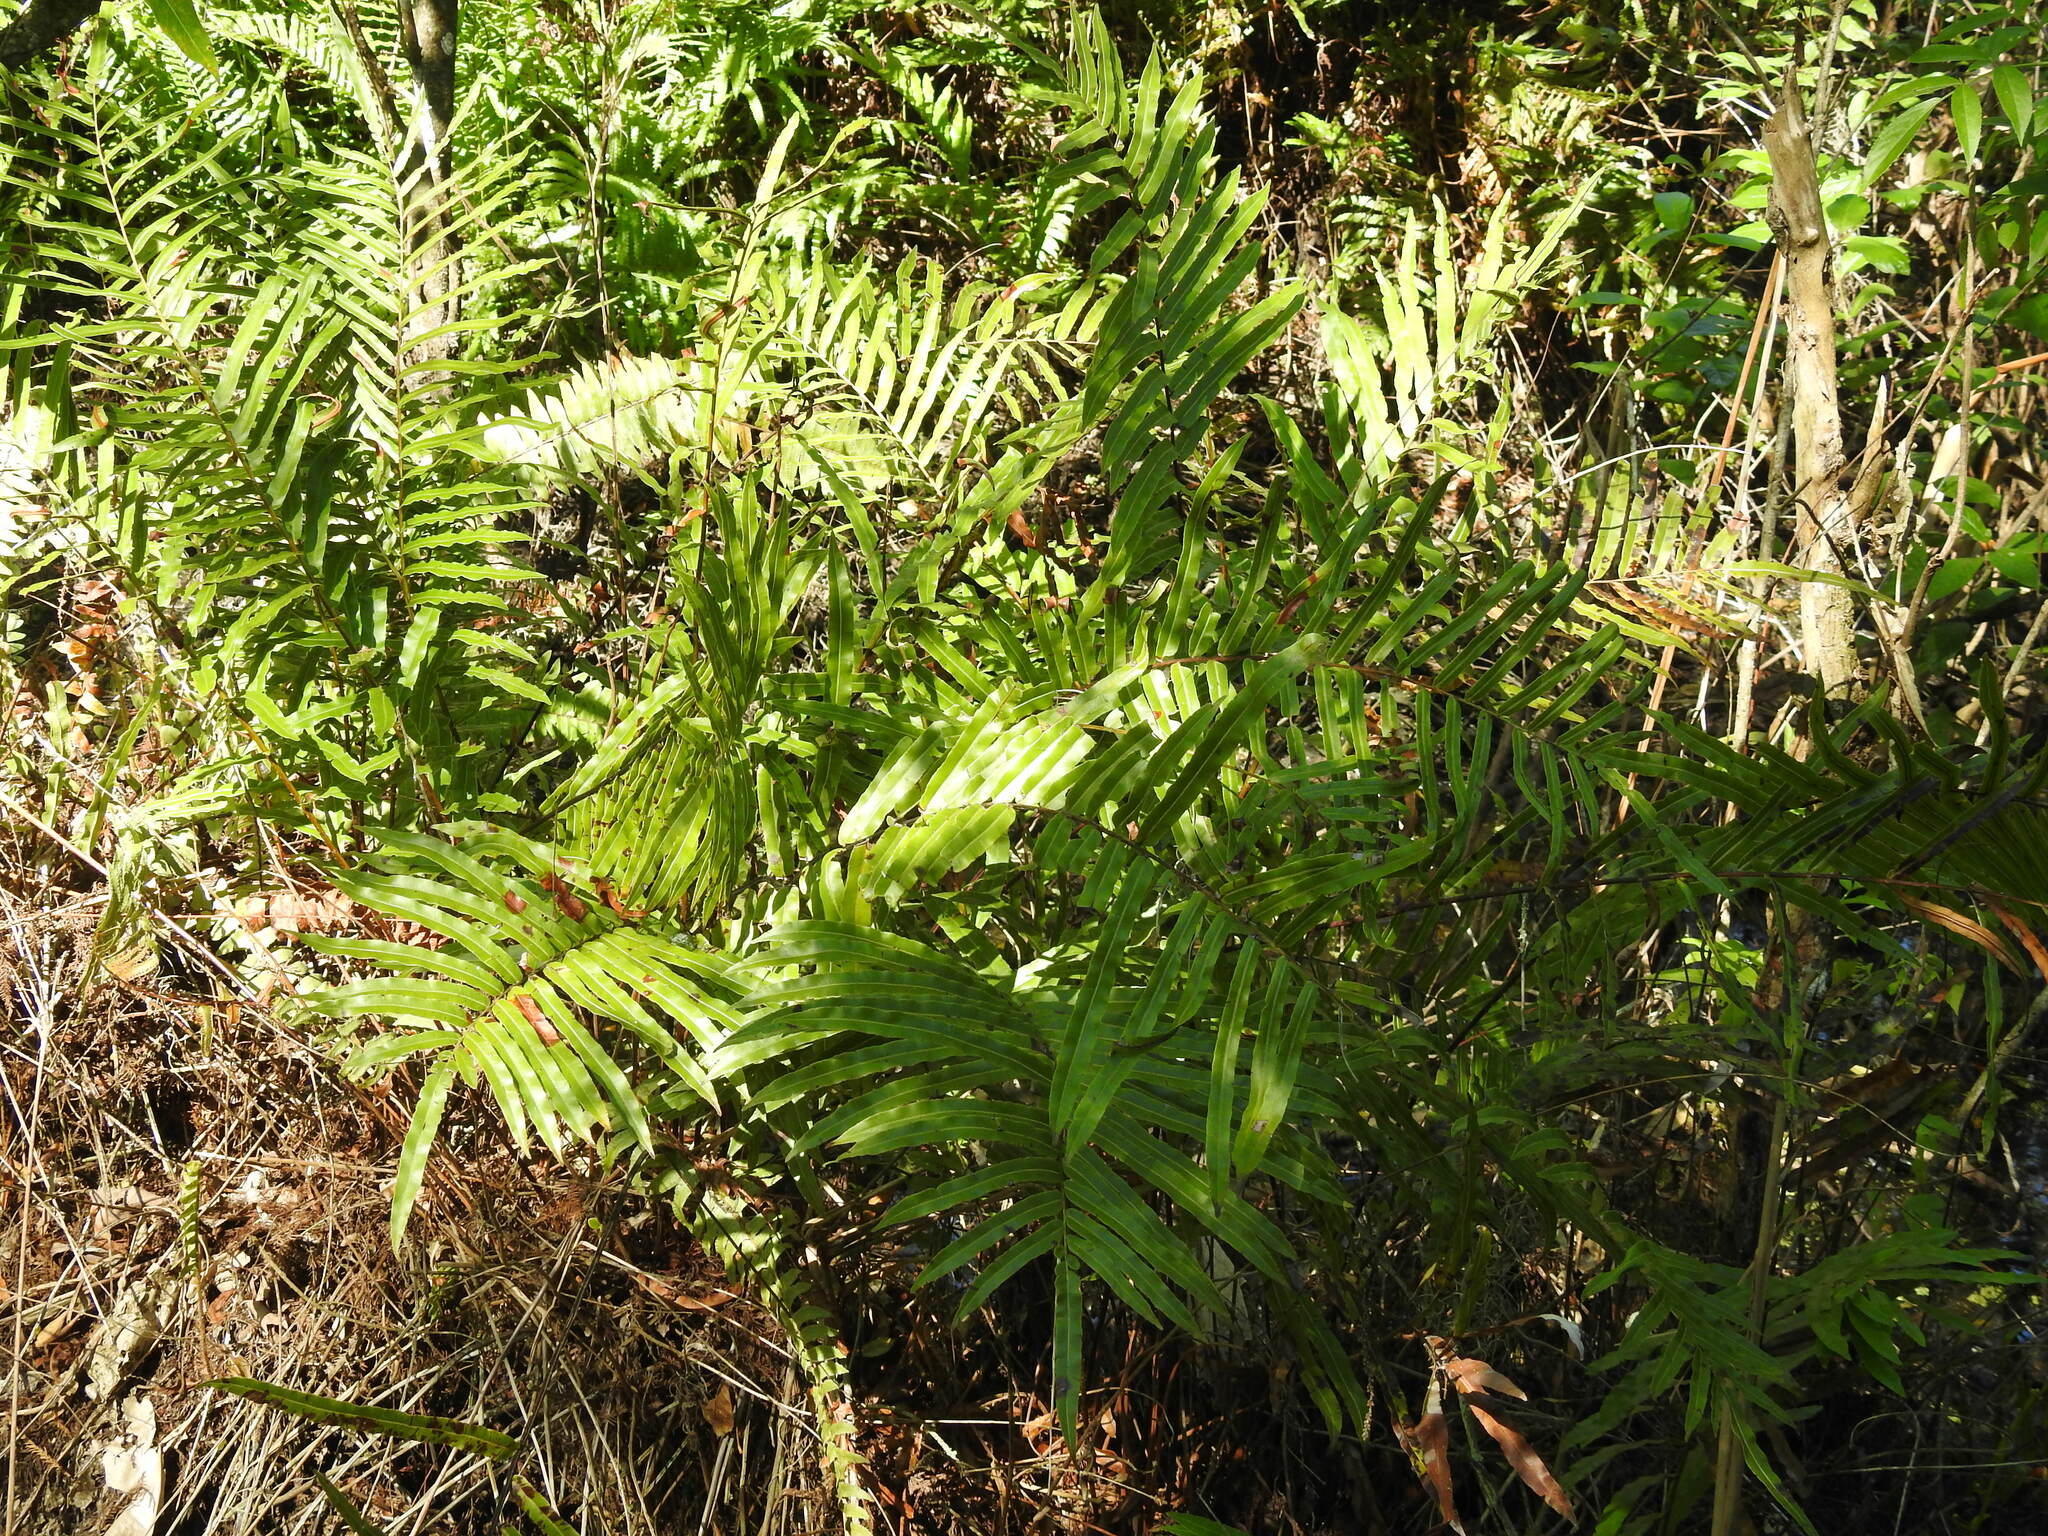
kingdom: Plantae
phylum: Tracheophyta
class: Polypodiopsida
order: Polypodiales
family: Blechnaceae
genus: Telmatoblechnum
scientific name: Telmatoblechnum serrulatum
